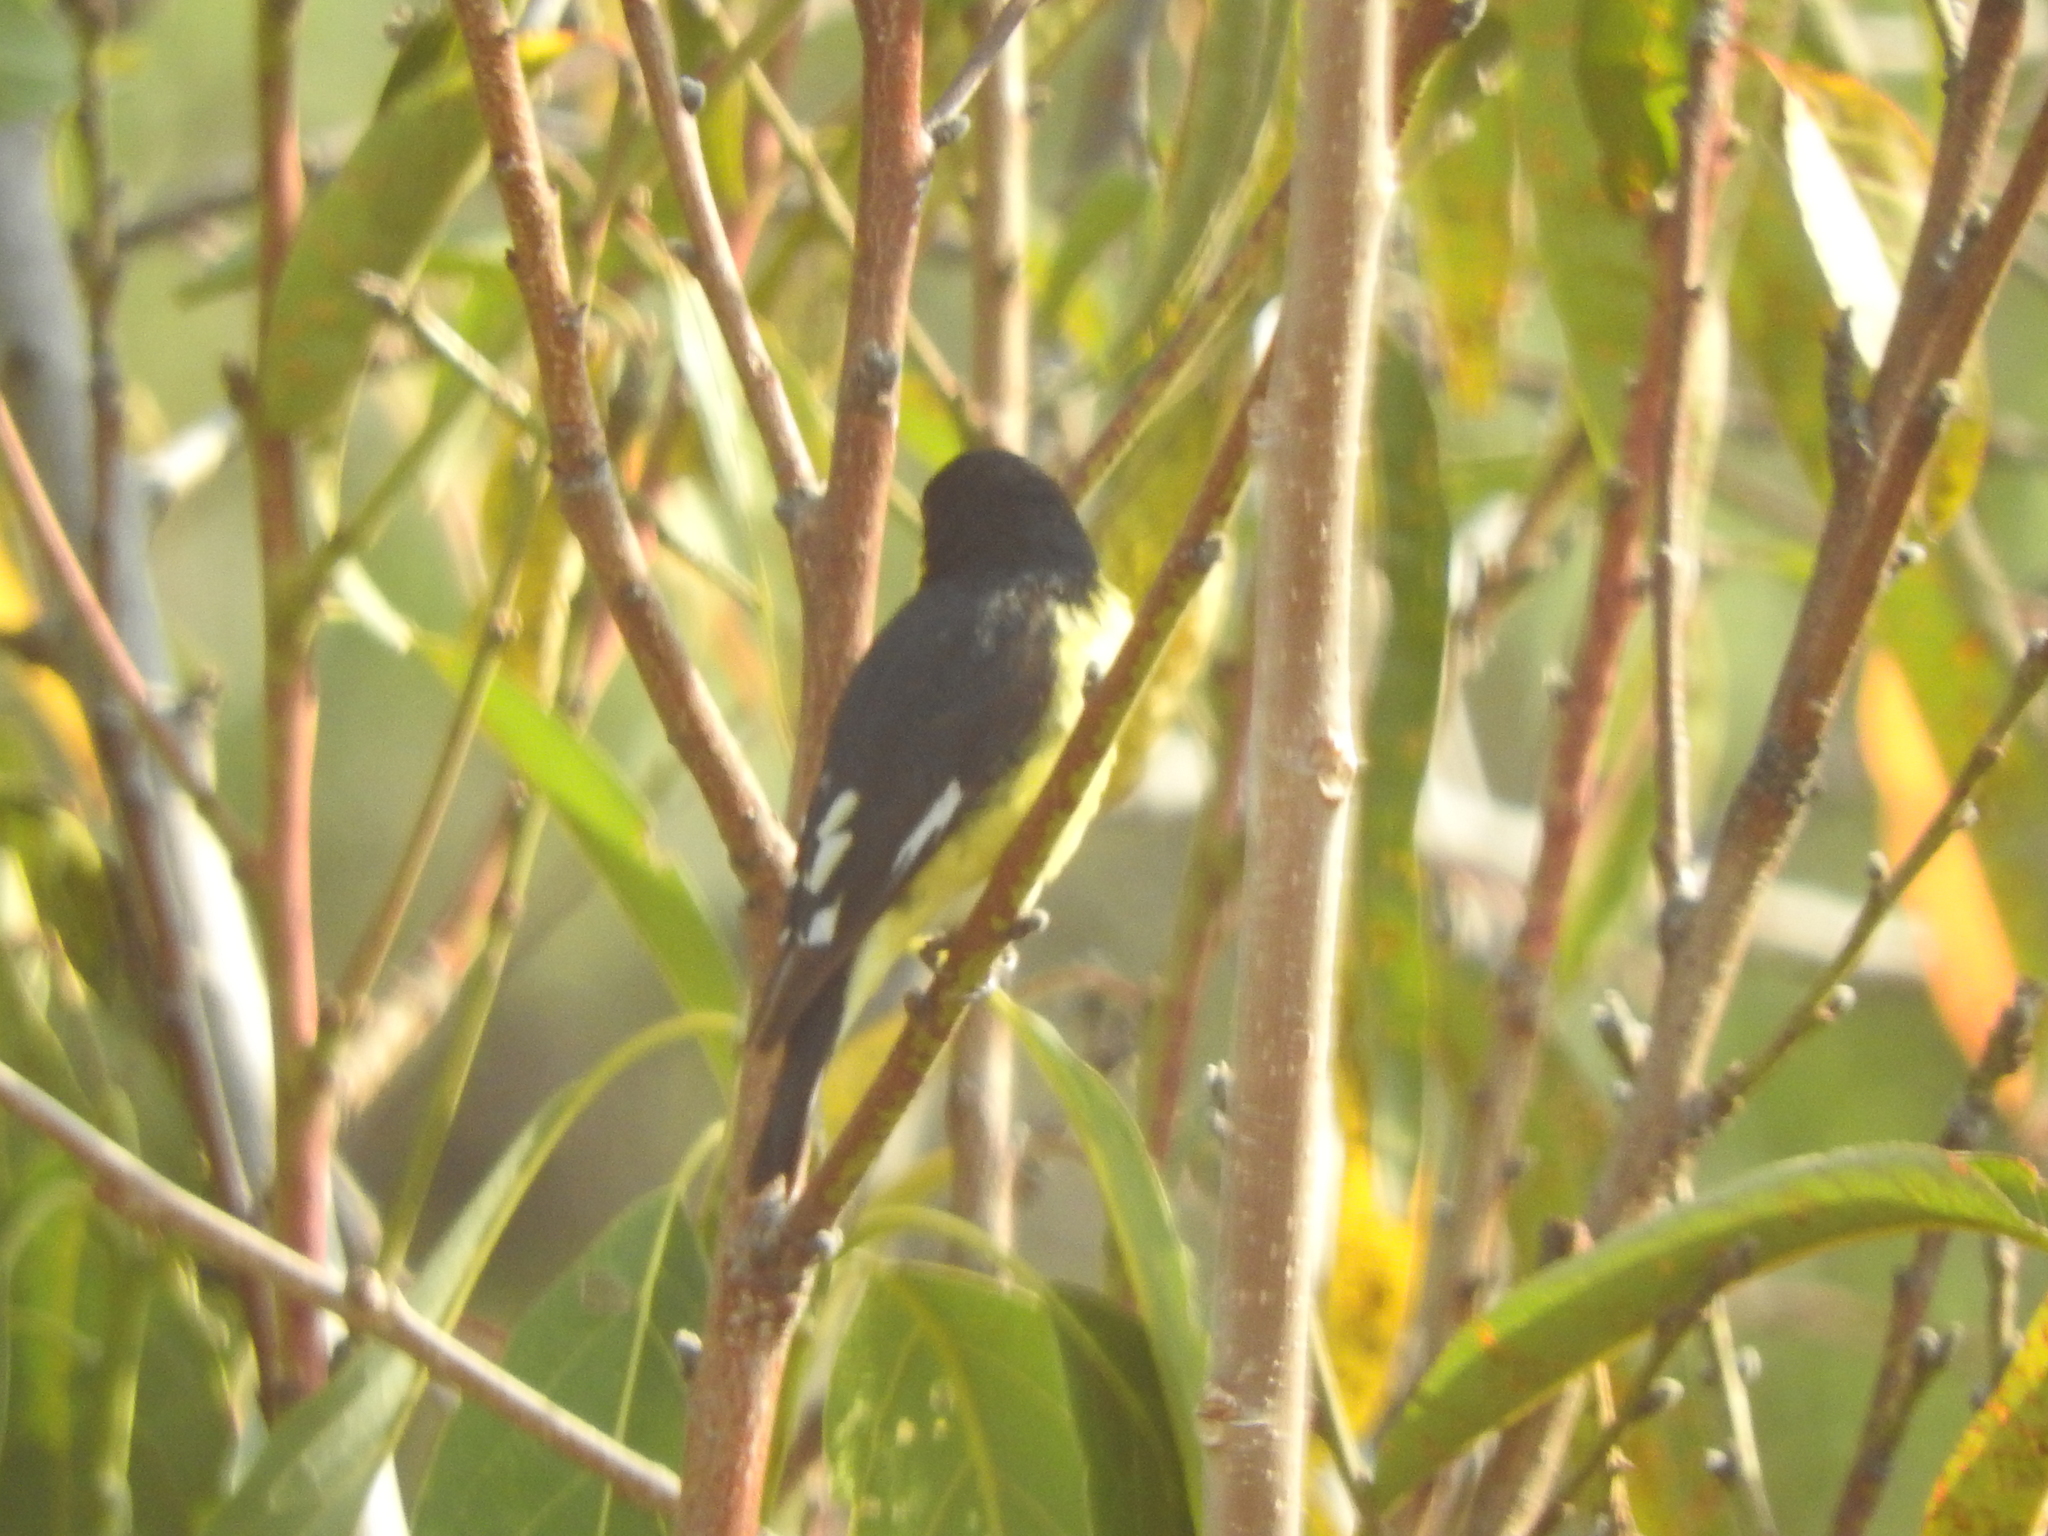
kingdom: Animalia
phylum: Chordata
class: Aves
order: Passeriformes
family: Fringillidae
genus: Spinus
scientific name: Spinus psaltria
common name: Lesser goldfinch
